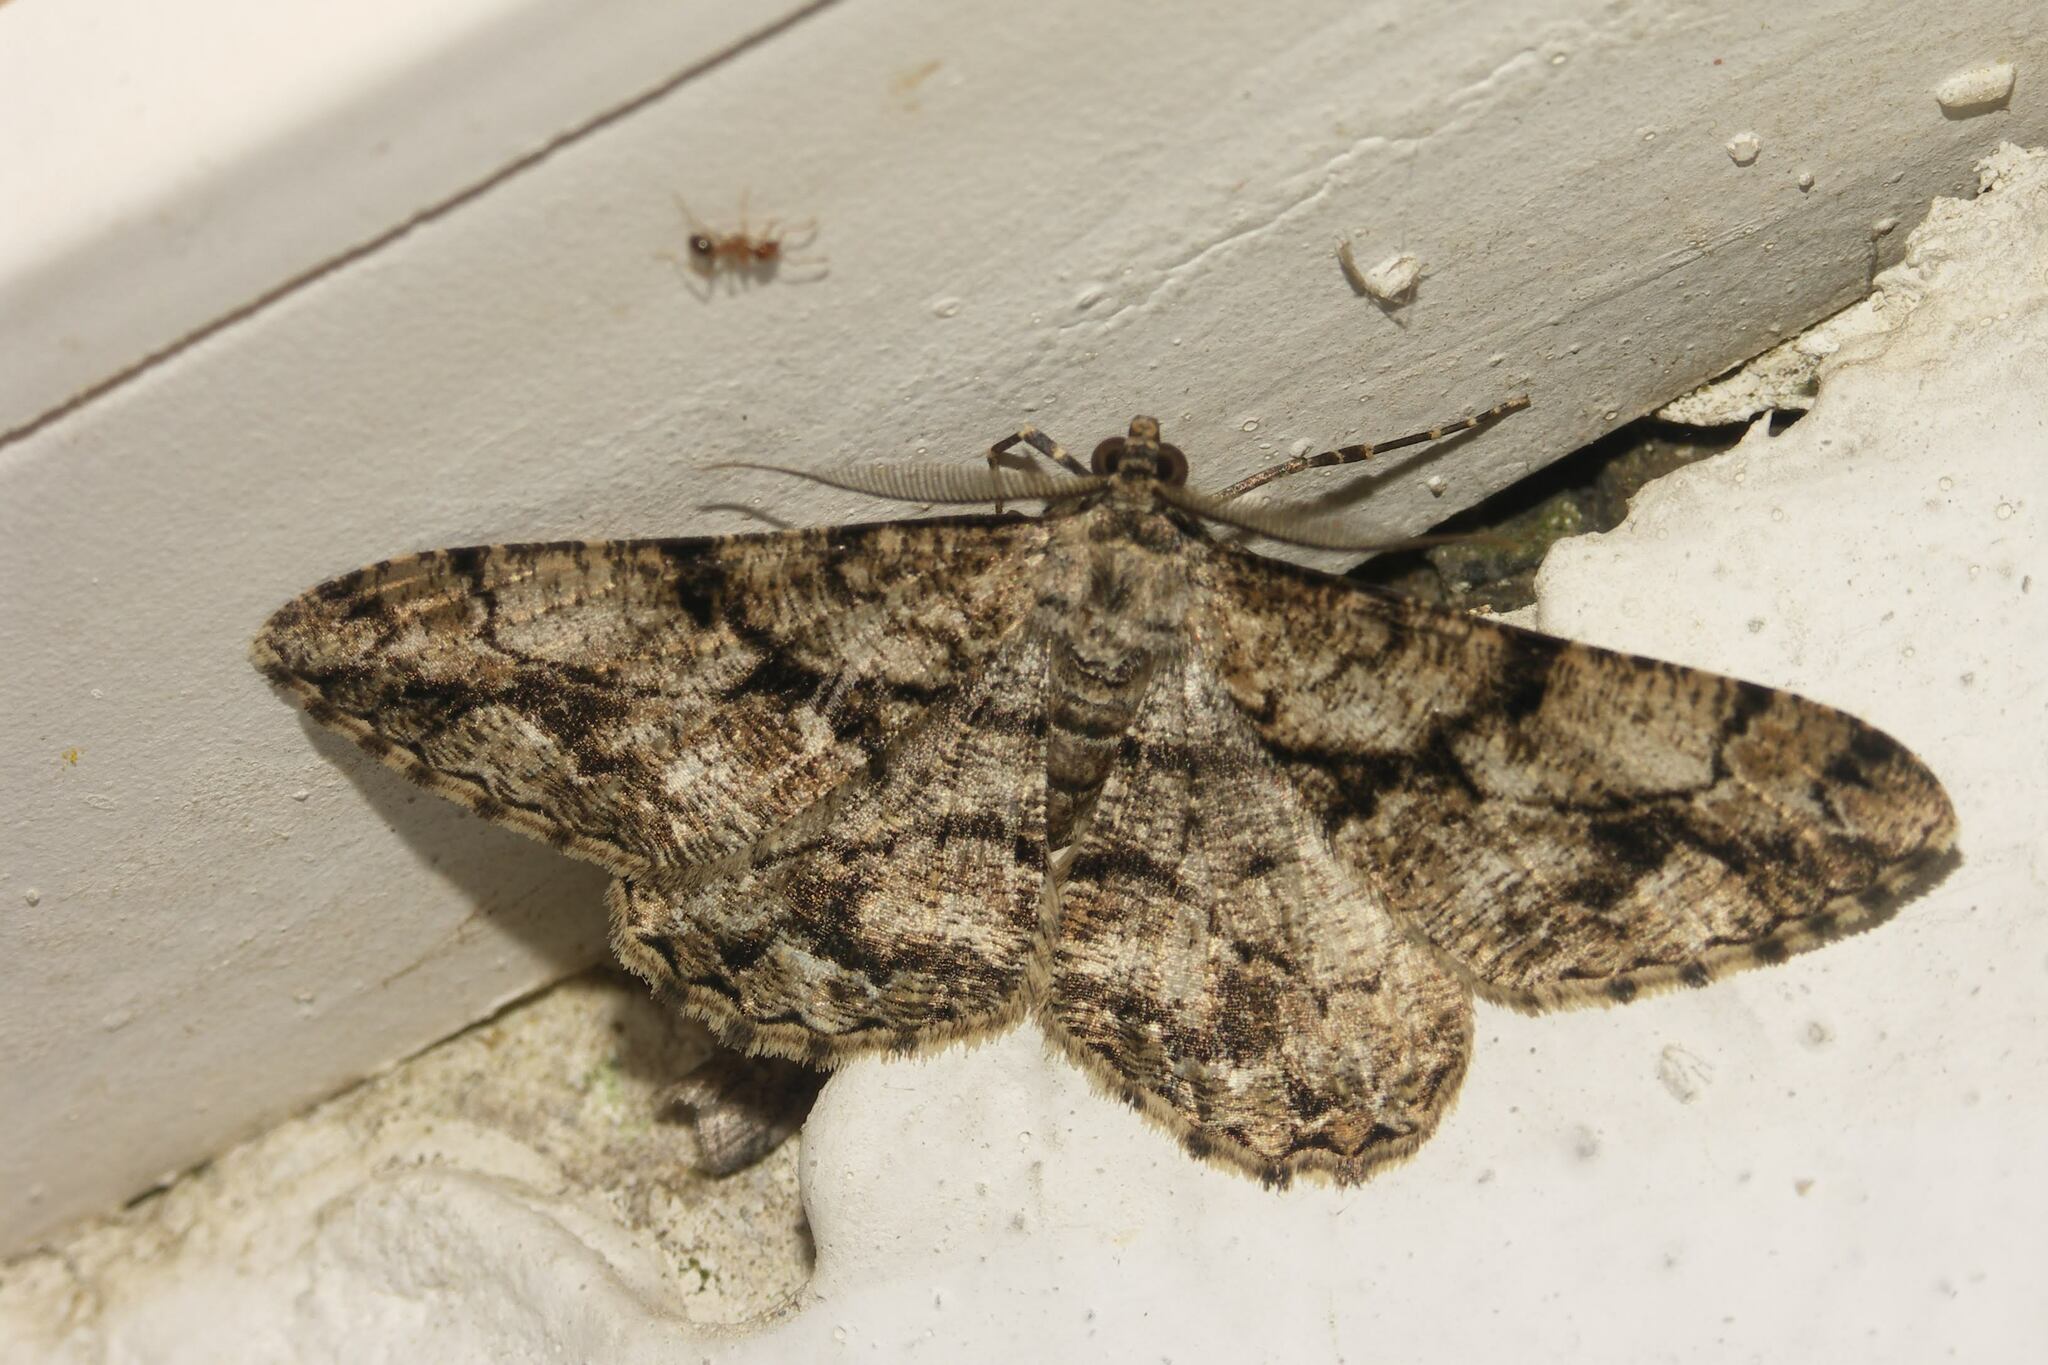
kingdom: Animalia
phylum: Arthropoda
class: Insecta
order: Lepidoptera
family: Geometridae
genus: Peribatodes
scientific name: Peribatodes umbraria
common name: Olive-tree beauty
